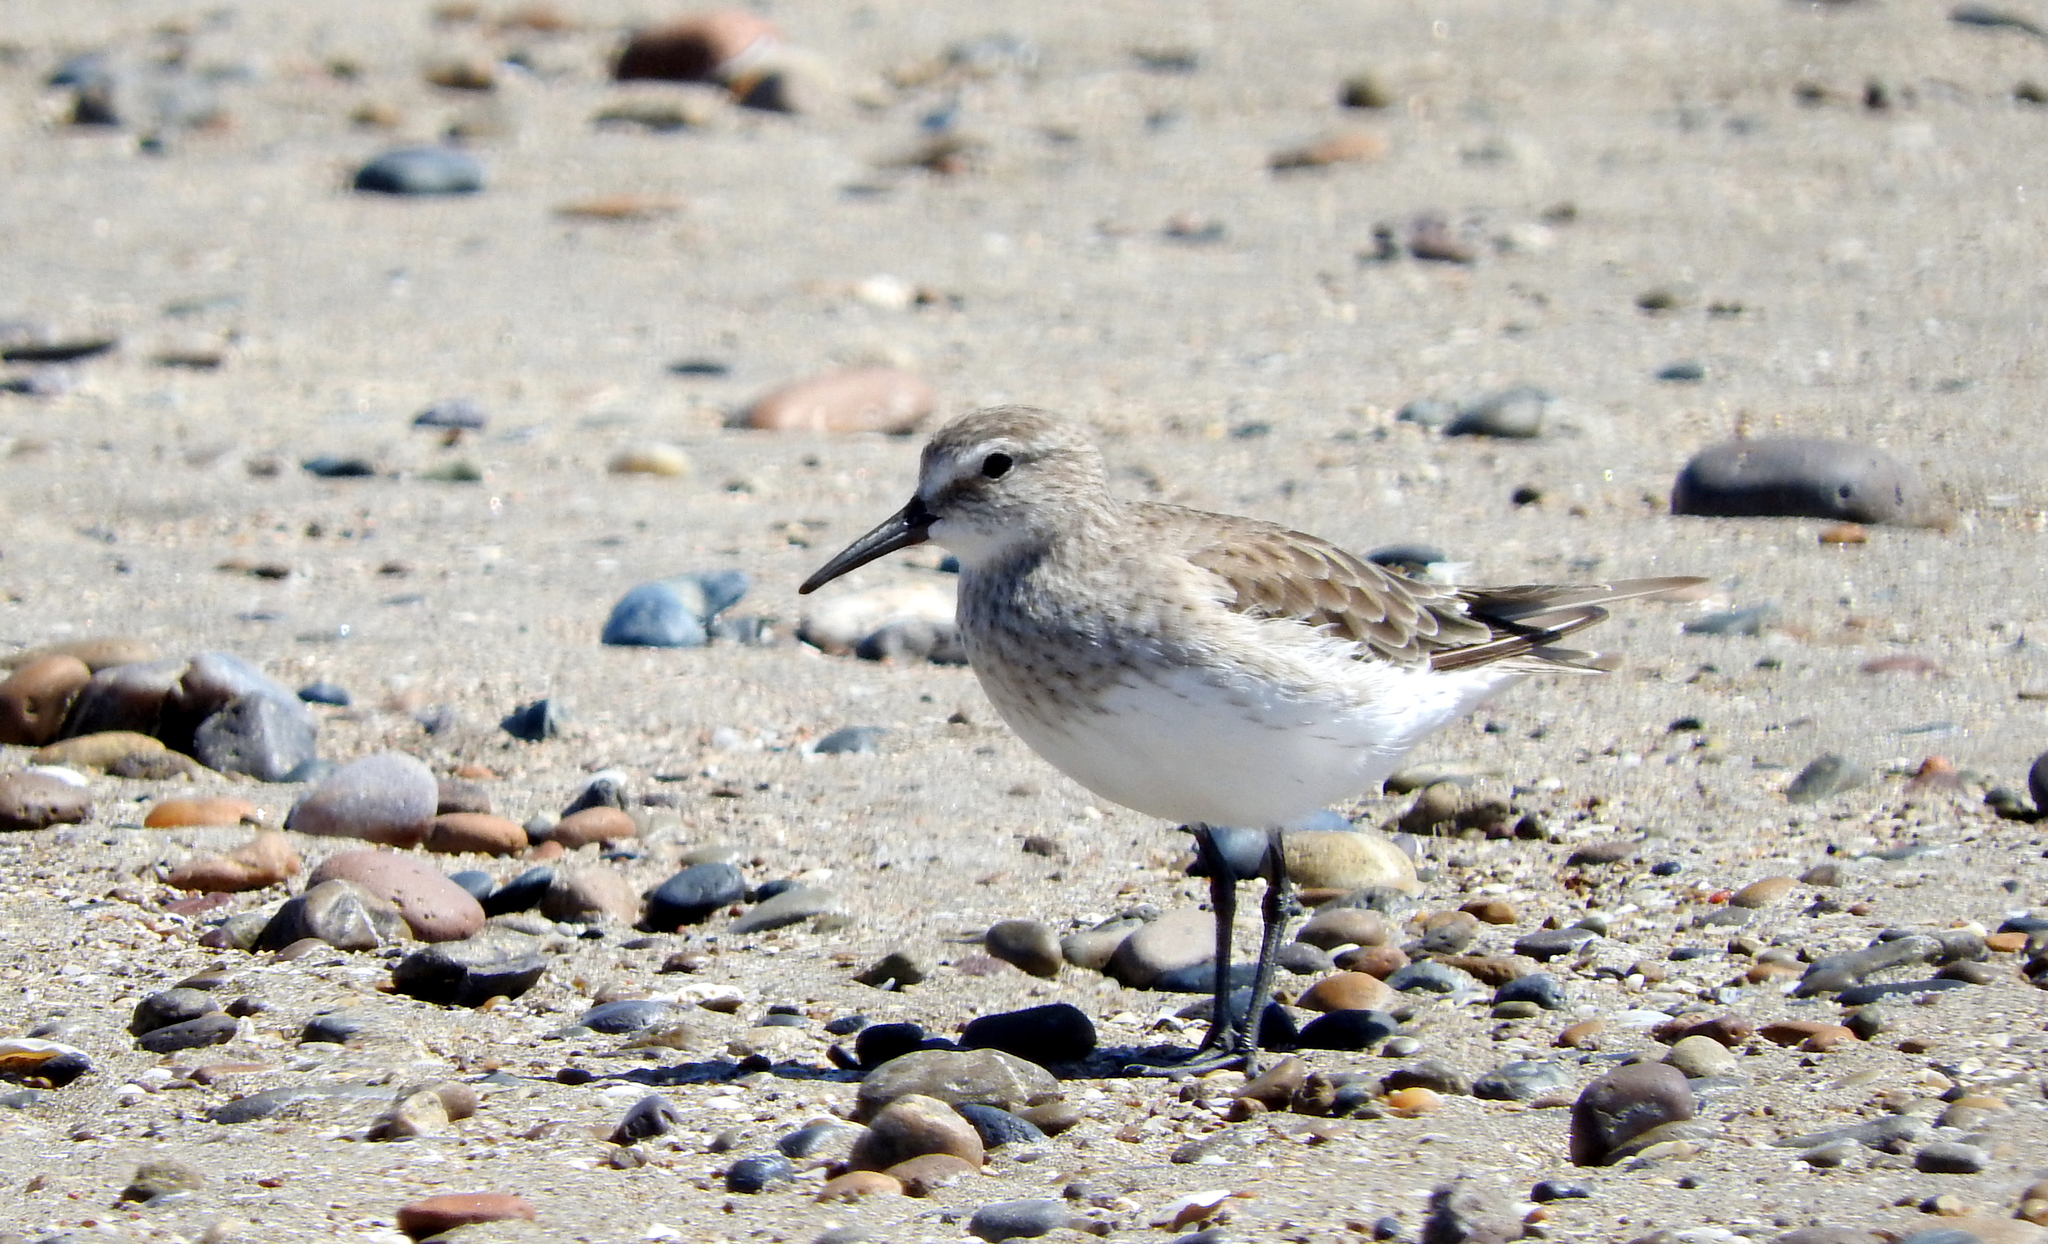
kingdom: Animalia
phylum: Chordata
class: Aves
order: Charadriiformes
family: Scolopacidae
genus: Calidris
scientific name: Calidris fuscicollis
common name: White-rumped sandpiper
